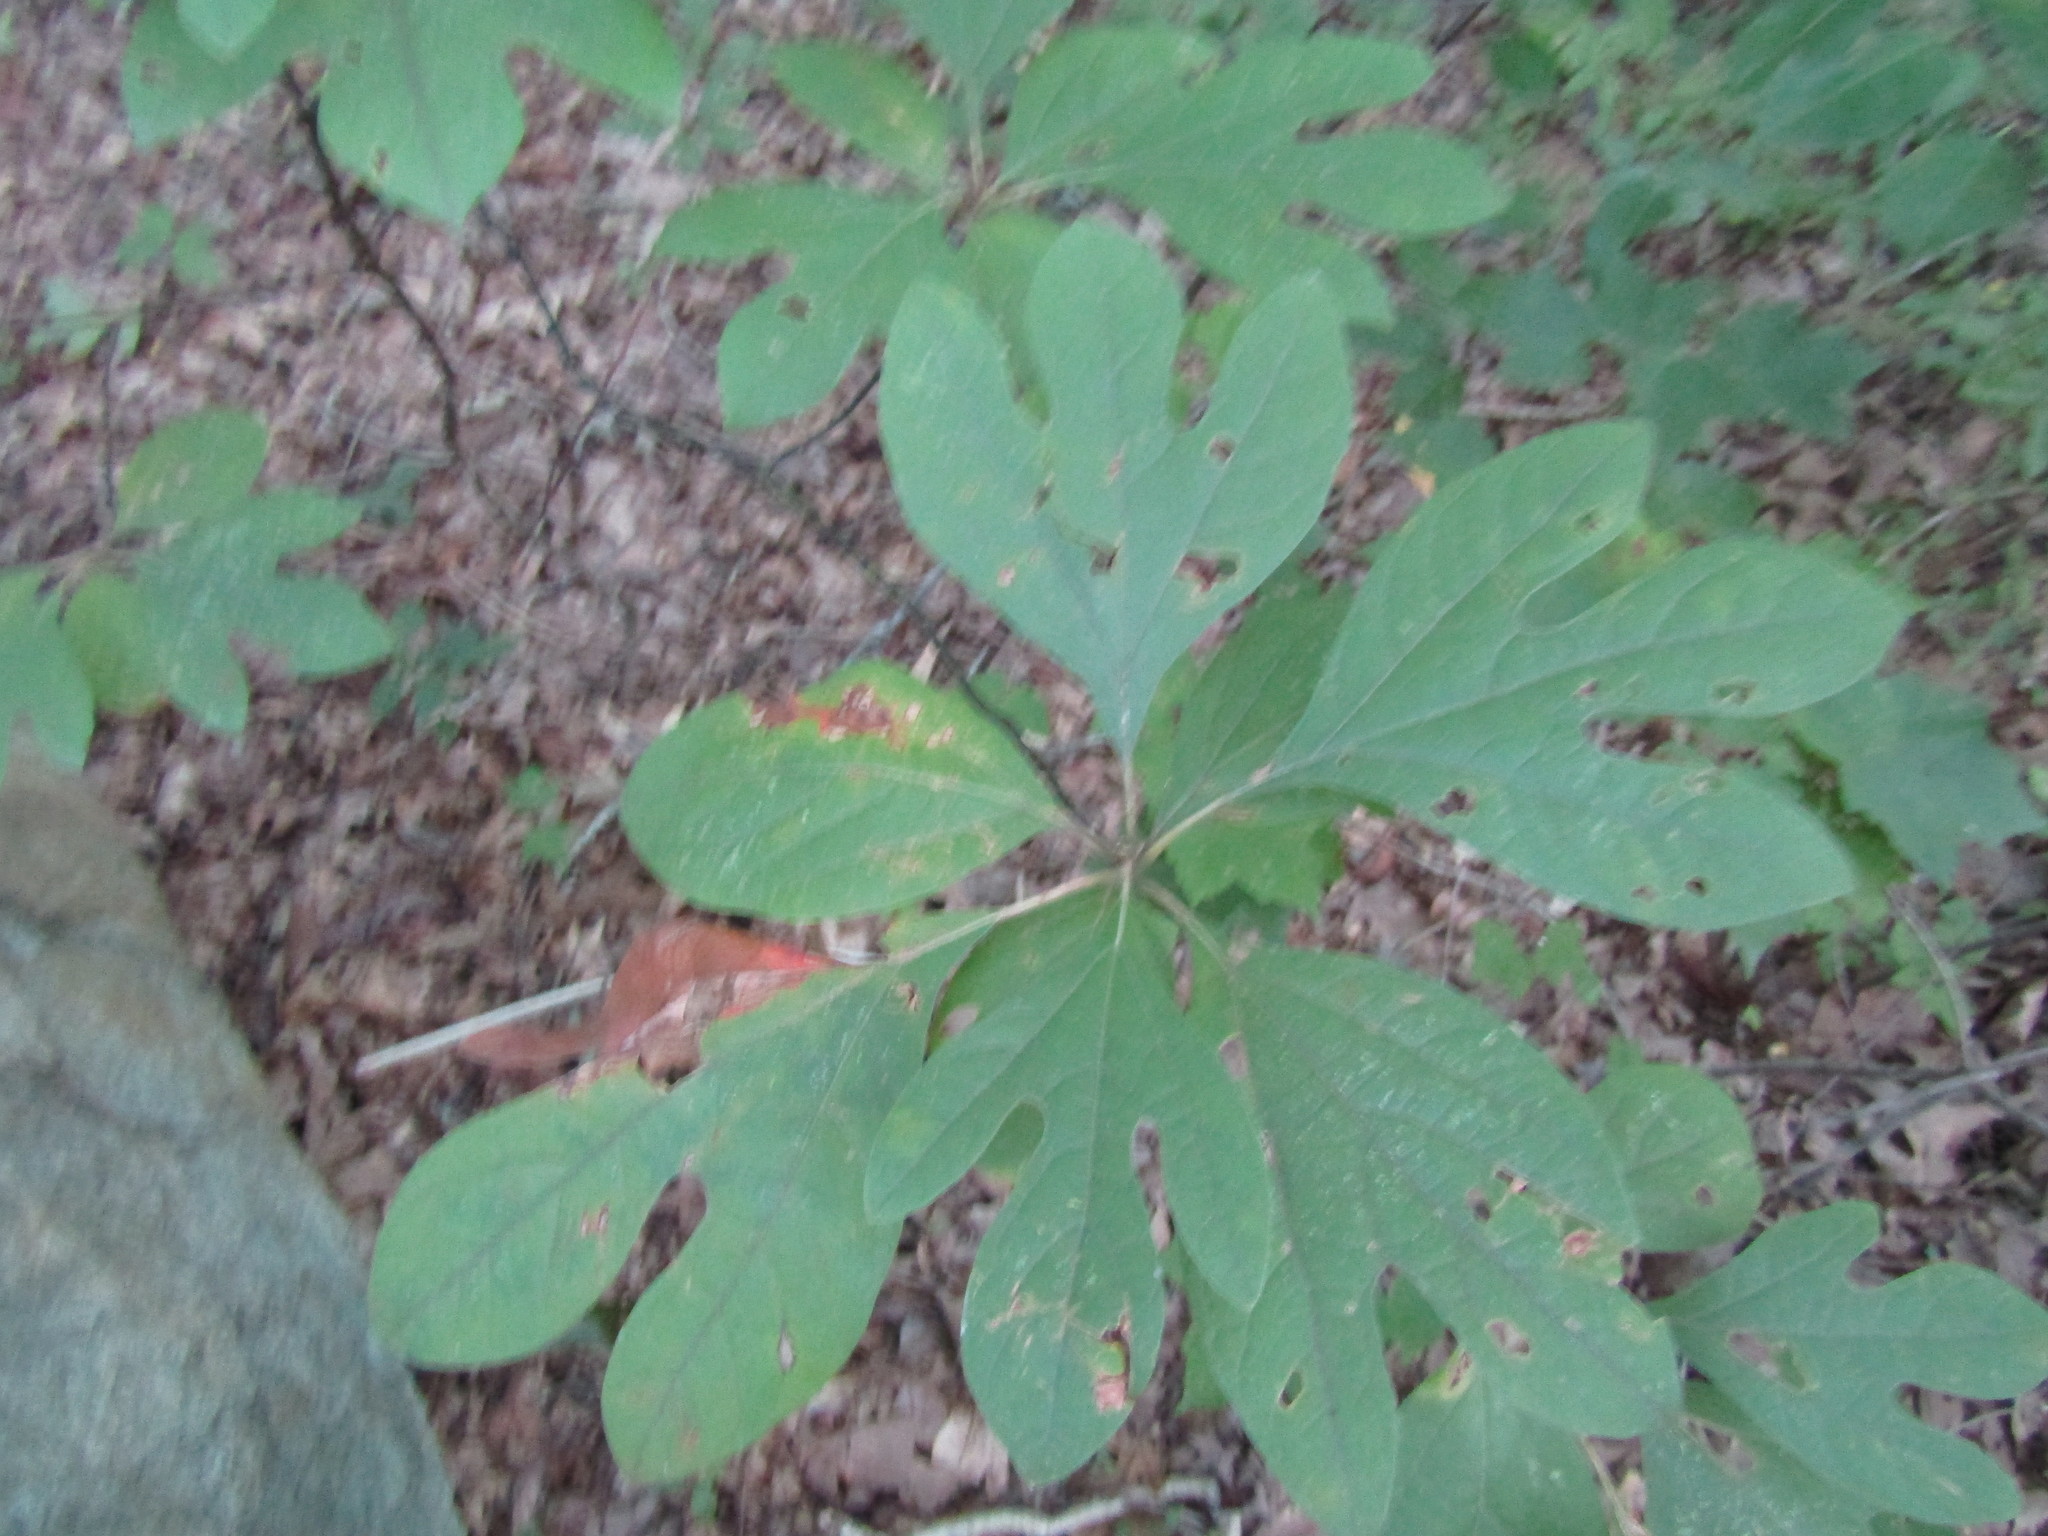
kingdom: Plantae
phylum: Tracheophyta
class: Magnoliopsida
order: Laurales
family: Lauraceae
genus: Sassafras
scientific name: Sassafras albidum
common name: Sassafras
